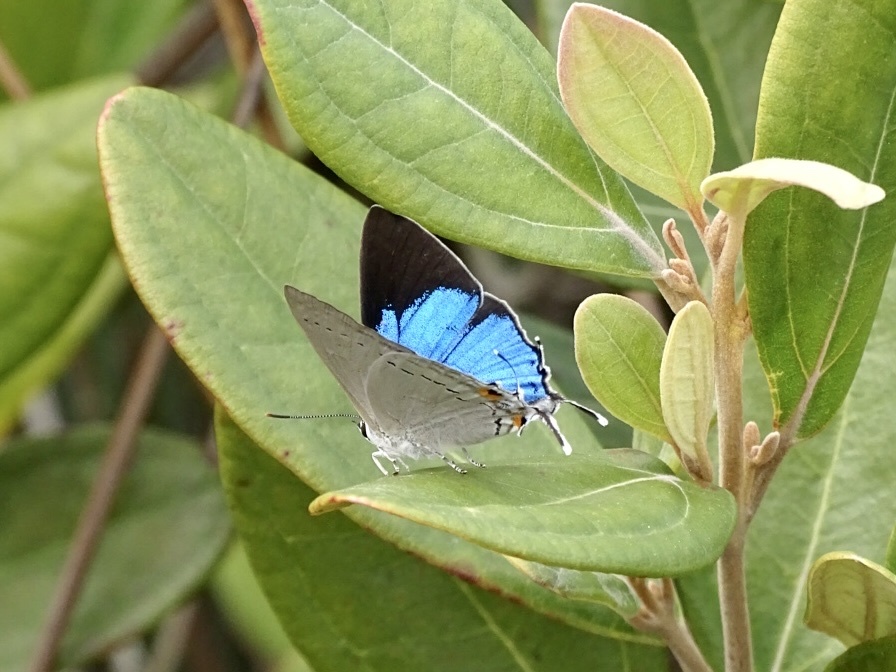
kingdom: Animalia
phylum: Arthropoda
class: Insecta
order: Lepidoptera
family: Lycaenidae
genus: Tajuria
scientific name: Tajuria cippus
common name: Peacock royal
